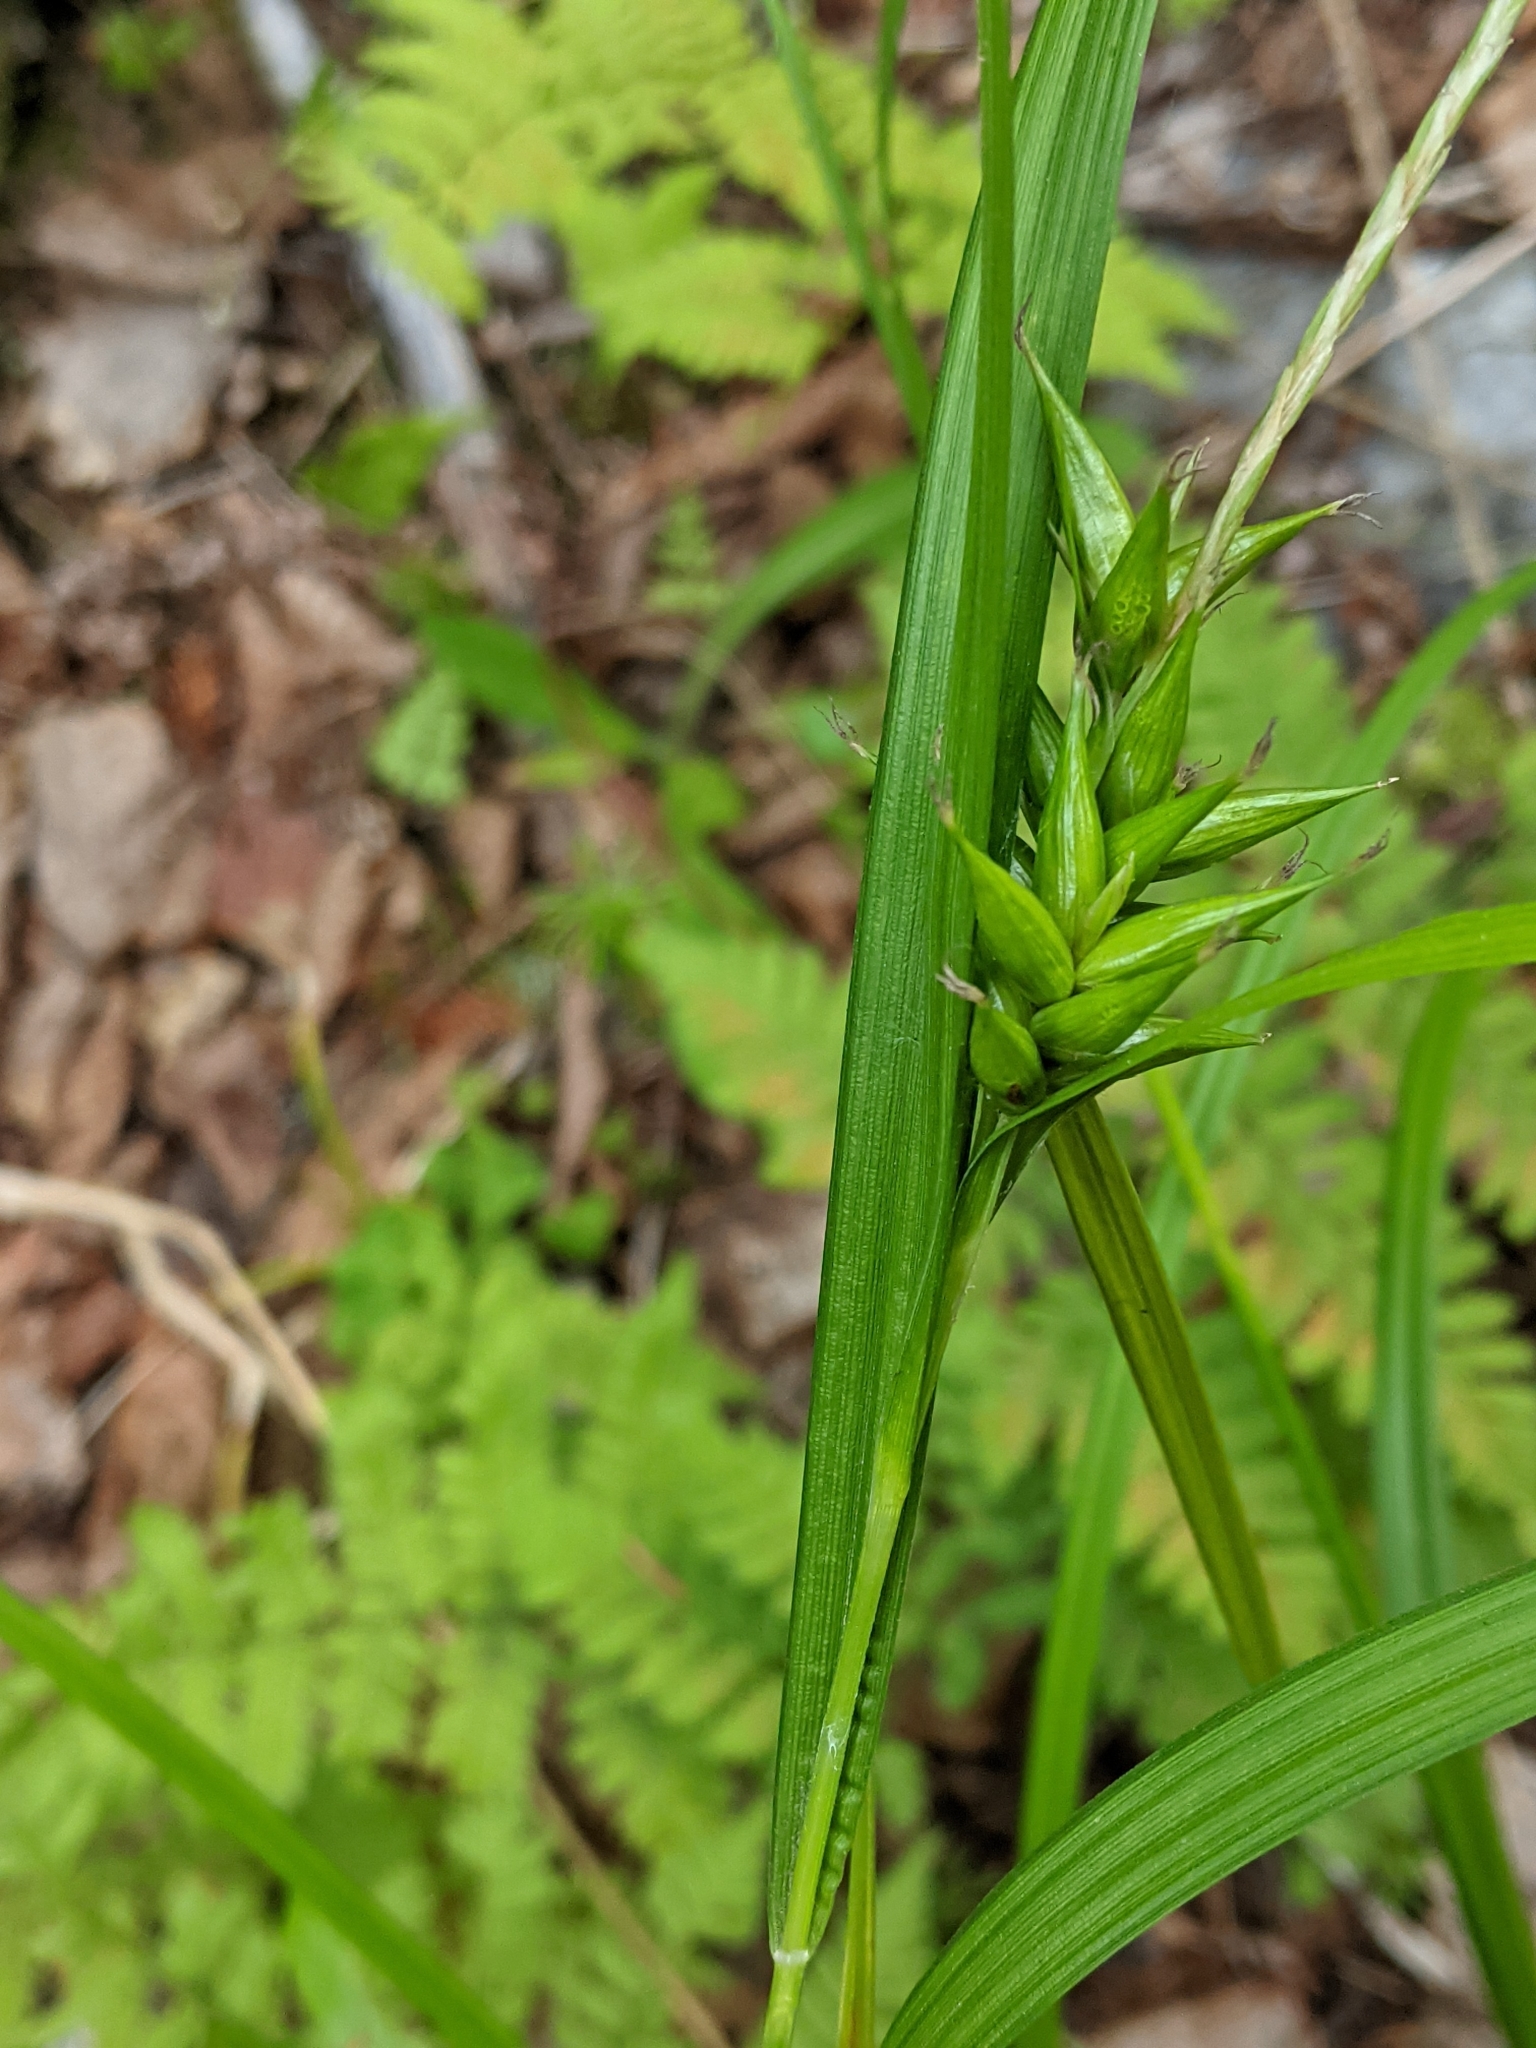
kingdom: Plantae
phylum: Tracheophyta
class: Liliopsida
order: Poales
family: Cyperaceae
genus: Carex
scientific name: Carex intumescens
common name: Greater bladder sedge
